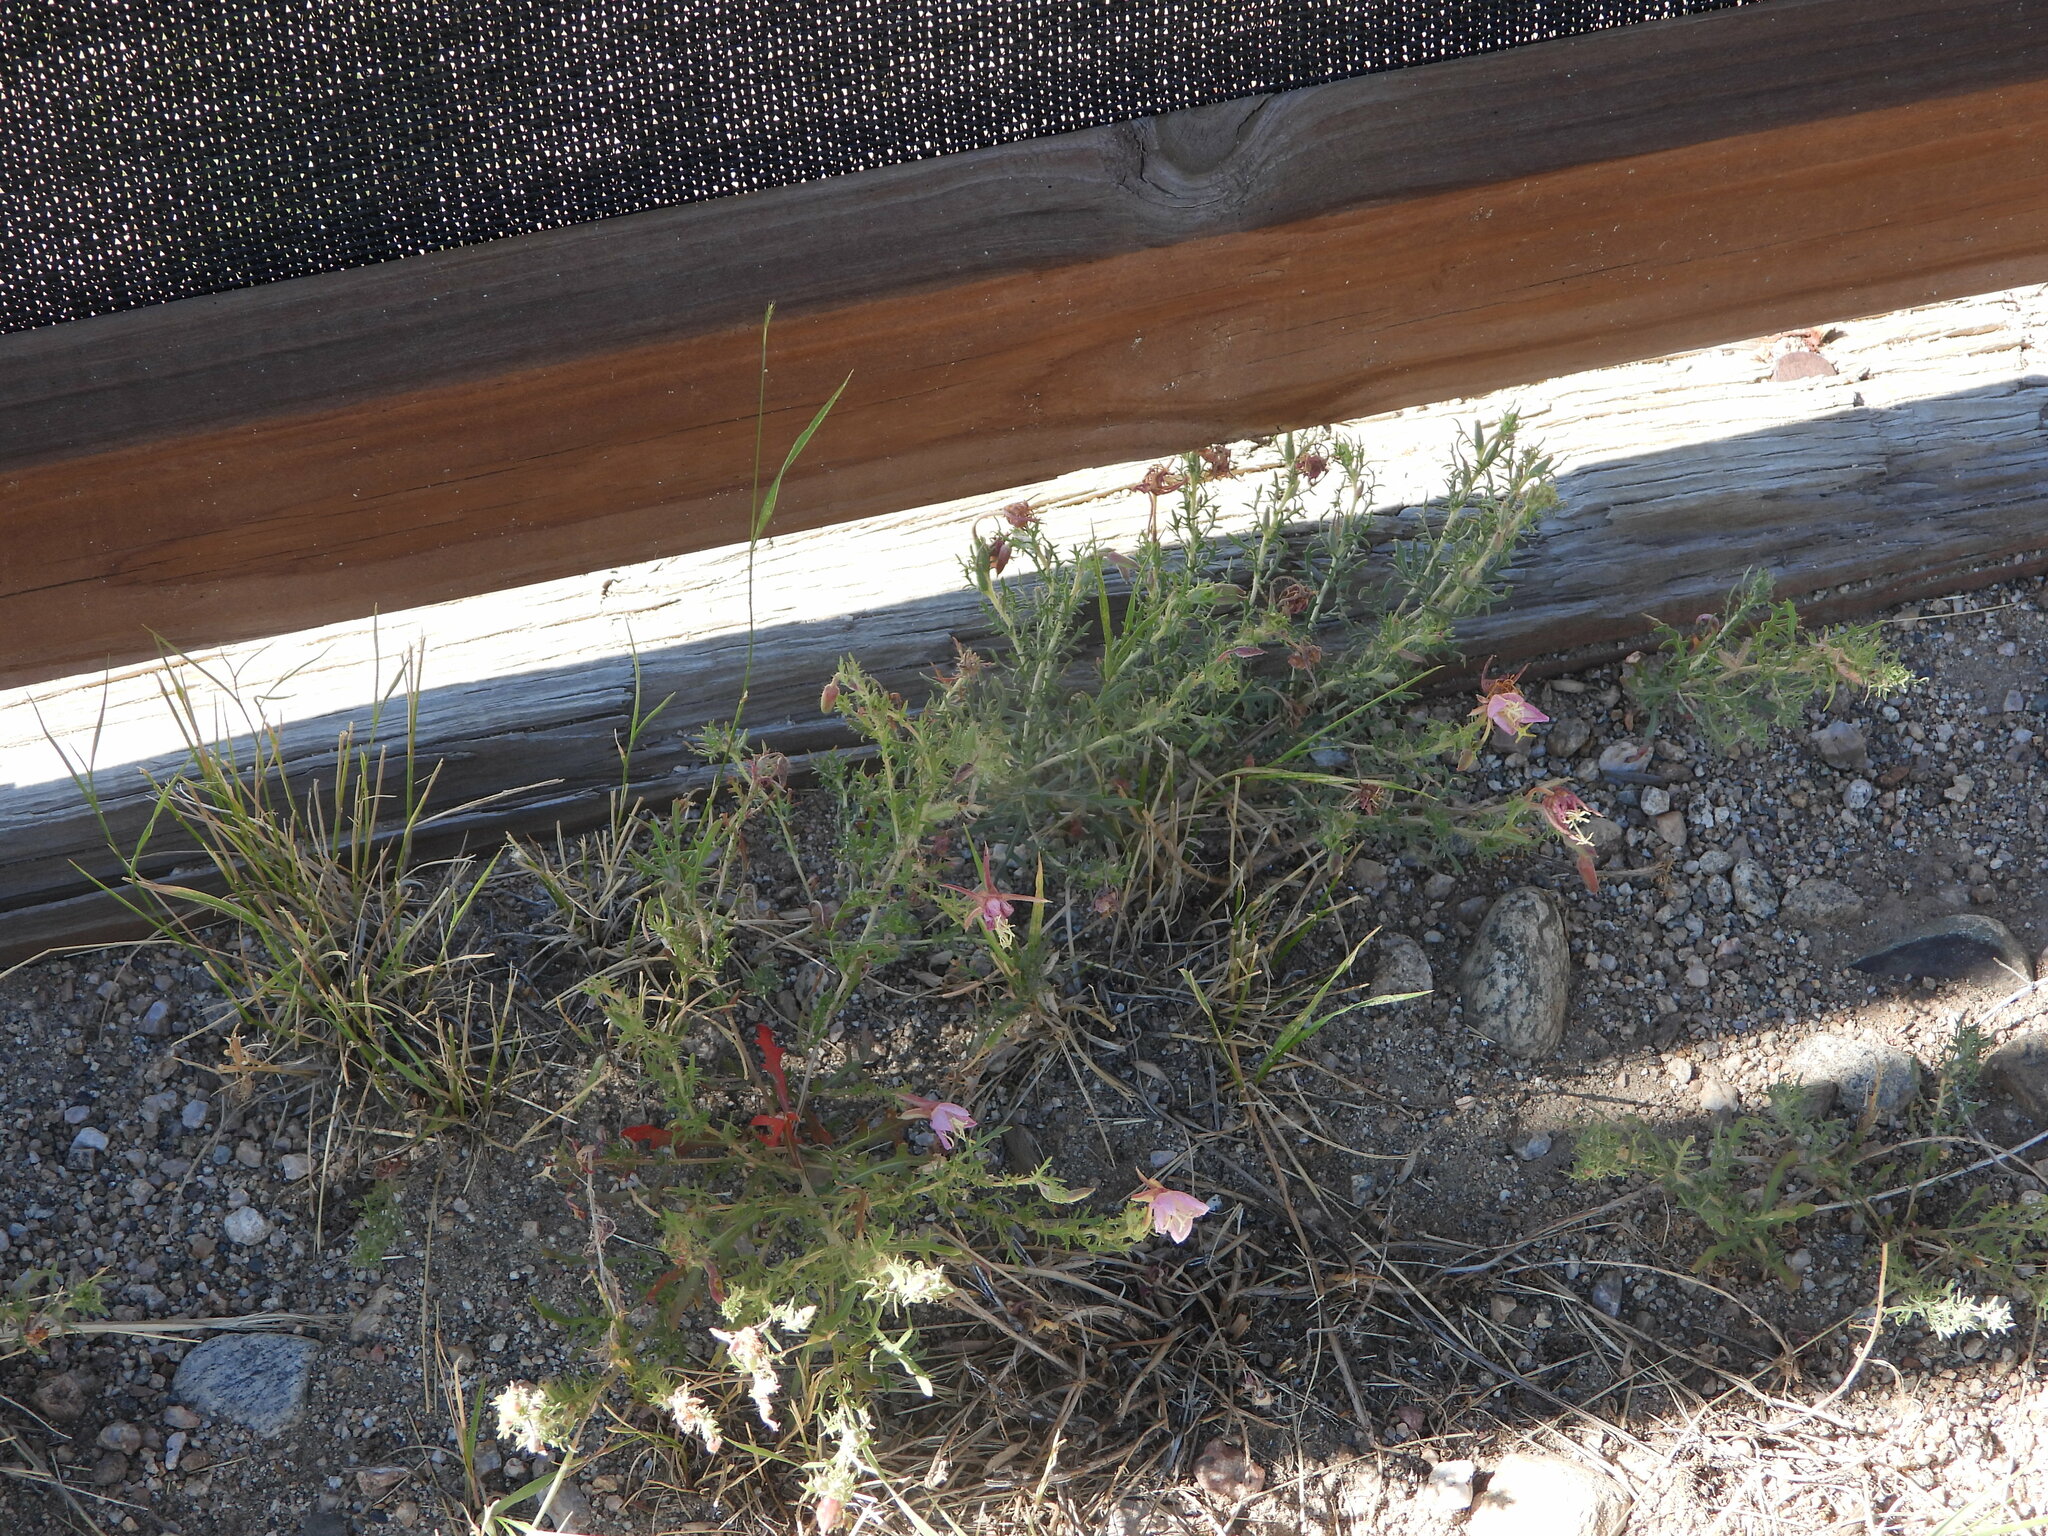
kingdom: Plantae
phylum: Tracheophyta
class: Magnoliopsida
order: Myrtales
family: Onagraceae
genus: Oenothera
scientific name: Oenothera coronopifolia
